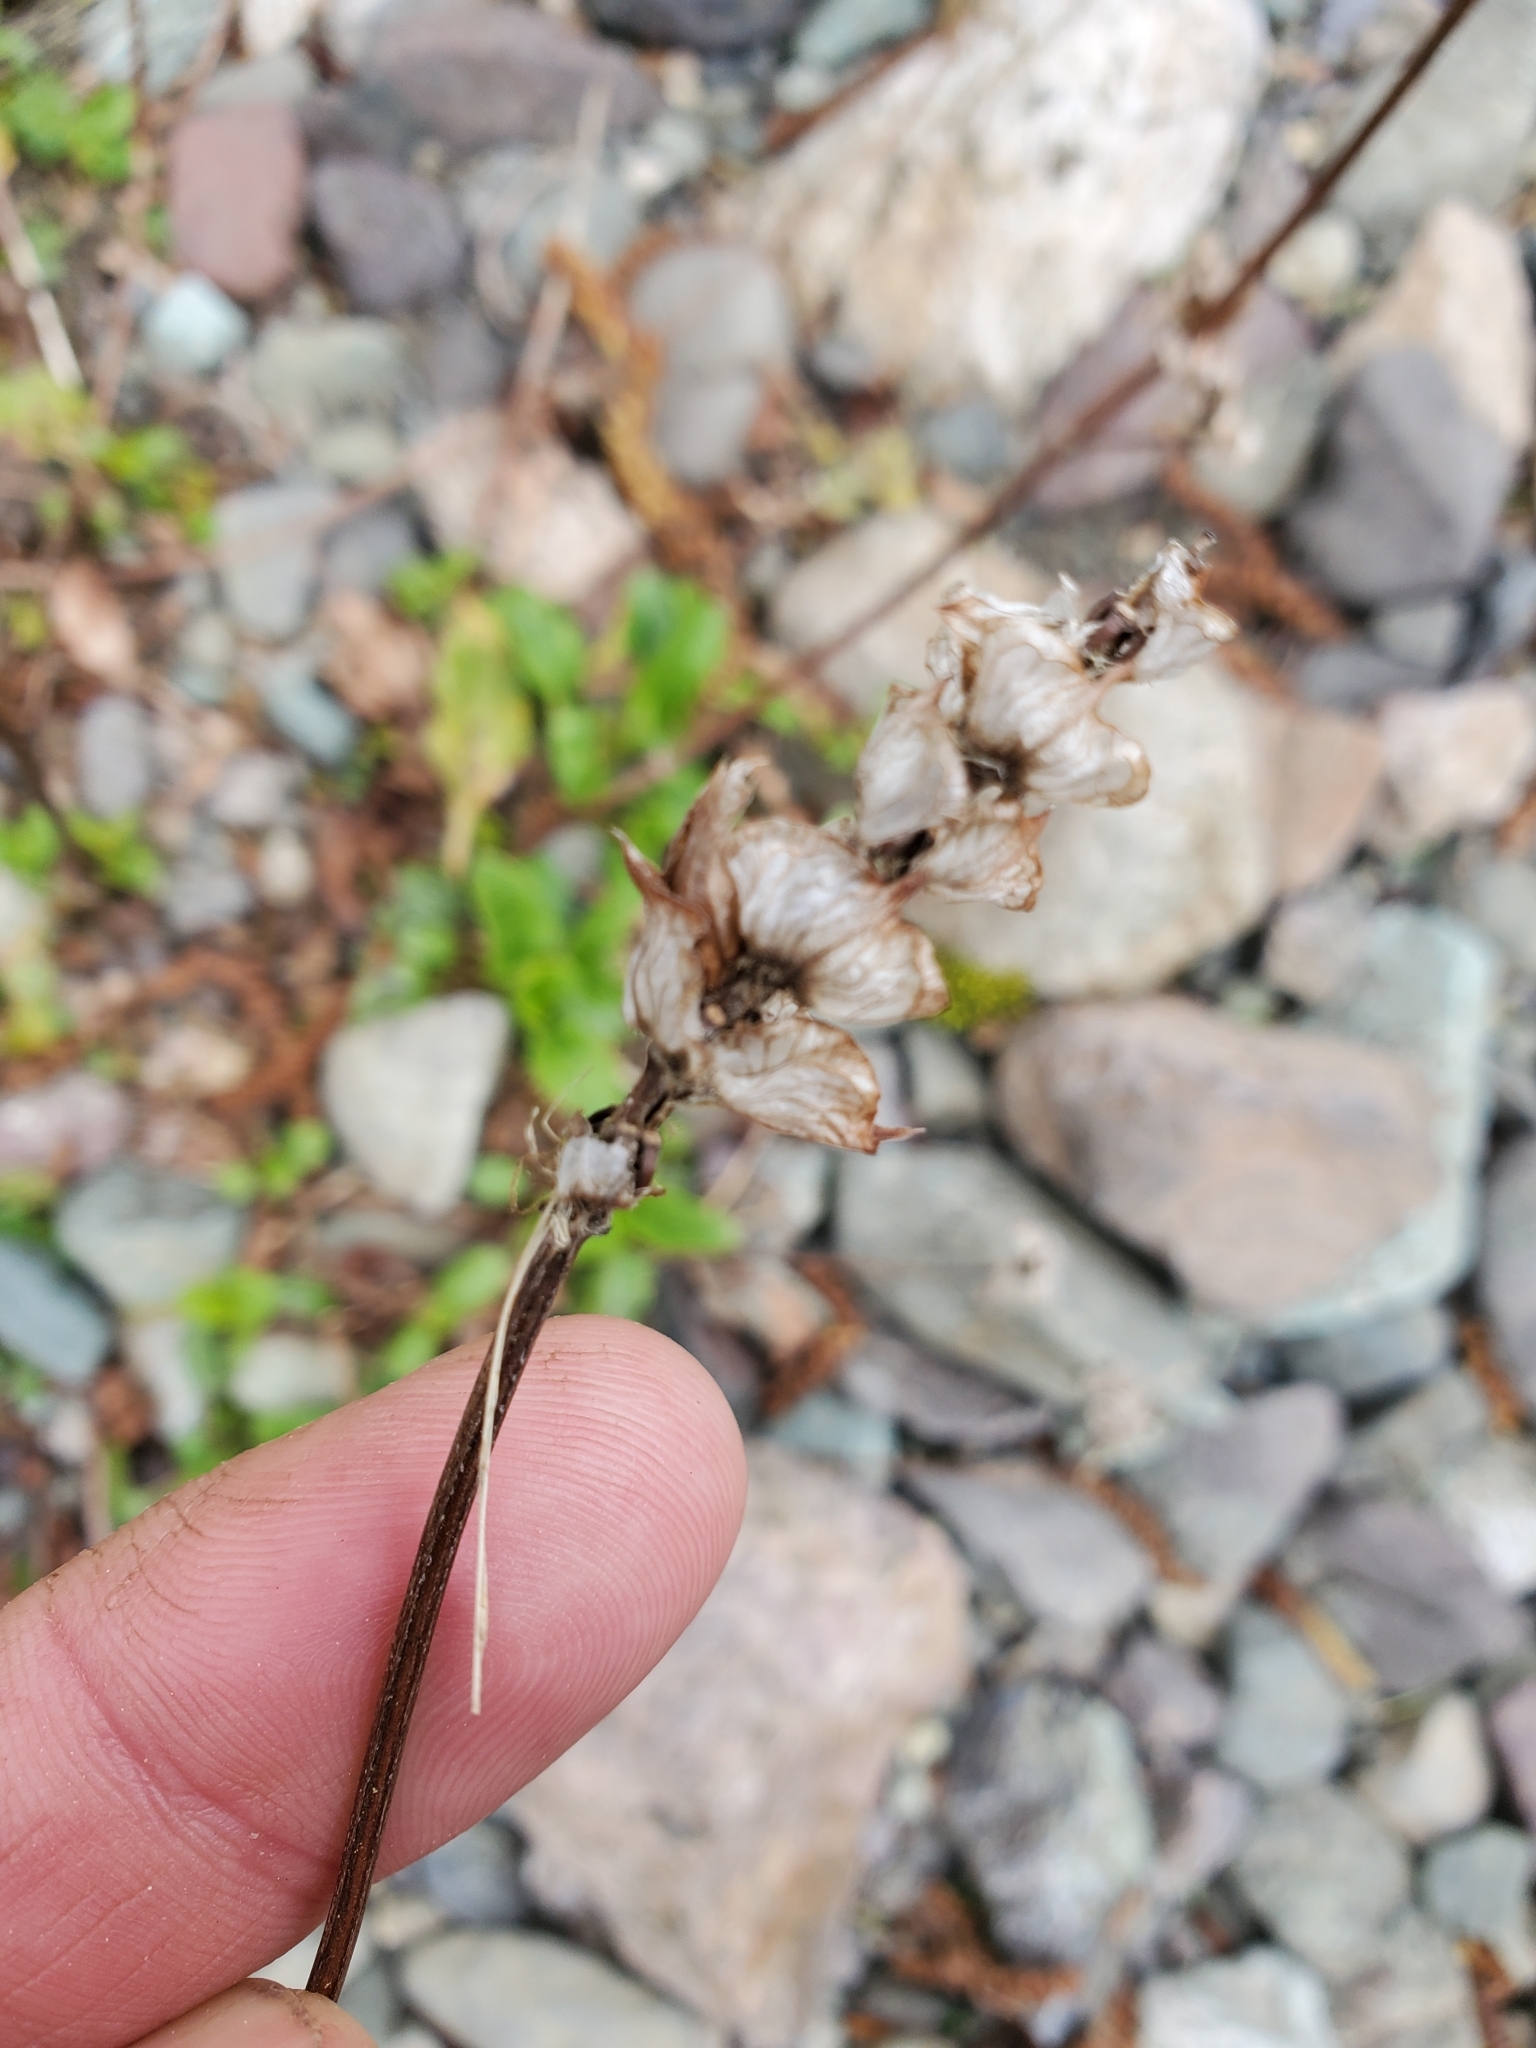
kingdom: Plantae
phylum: Tracheophyta
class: Magnoliopsida
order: Lamiales
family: Lamiaceae
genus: Prunella
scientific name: Prunella vulgaris
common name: Heal-all
